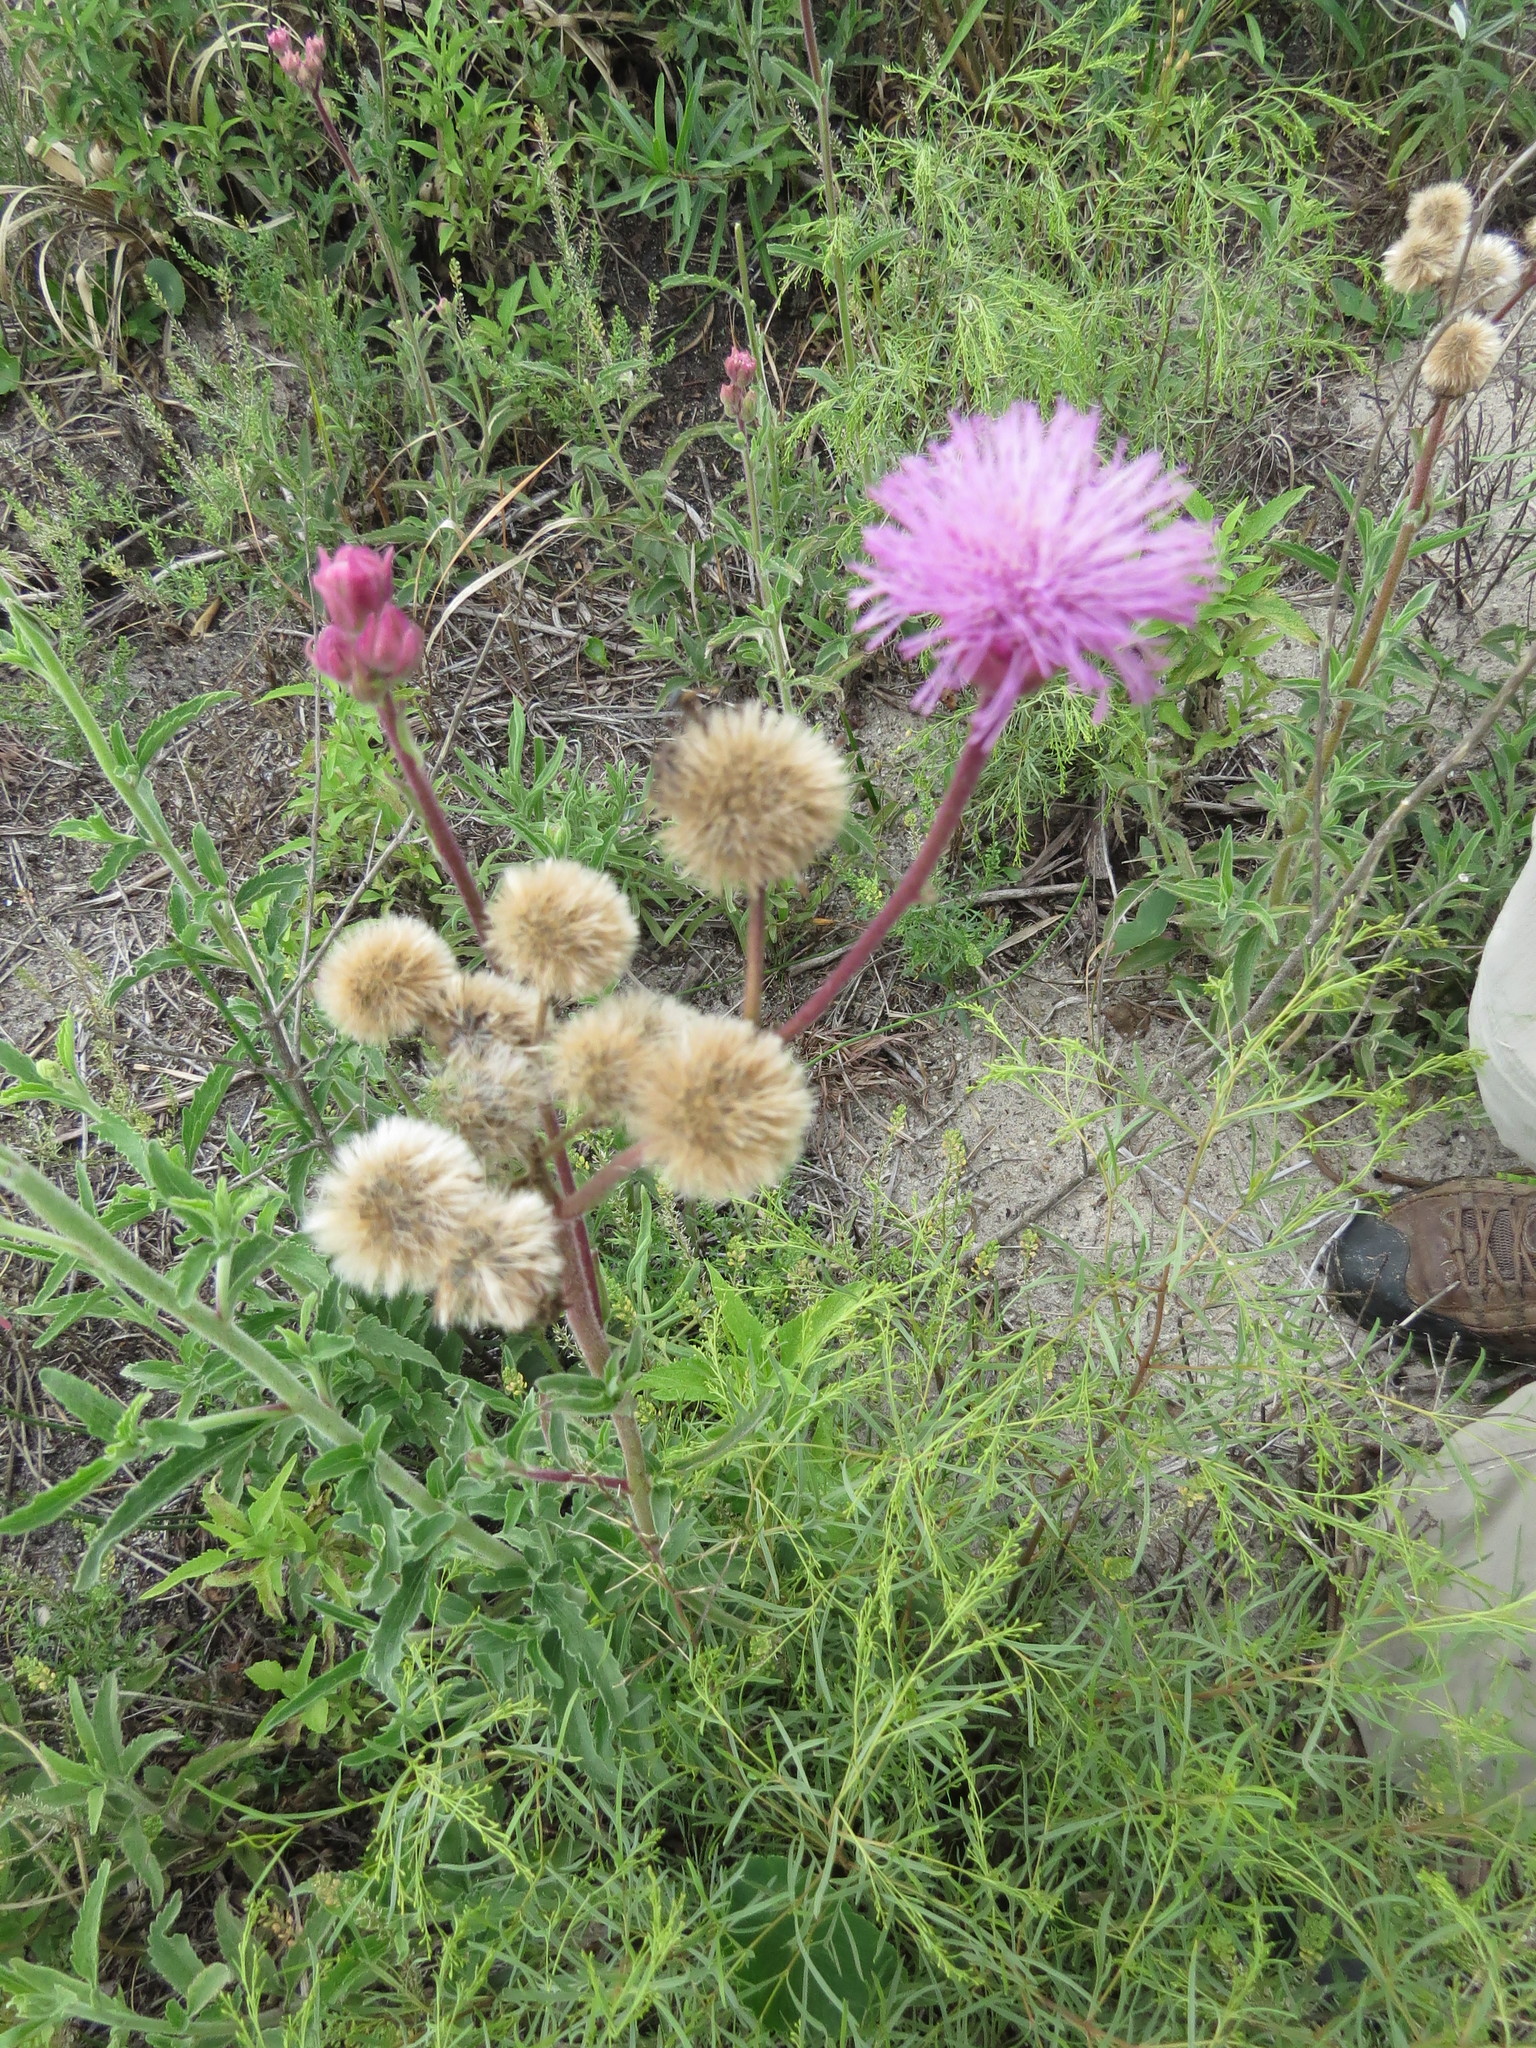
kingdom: Plantae
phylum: Tracheophyta
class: Magnoliopsida
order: Asterales
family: Asteraceae
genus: Campuloclinium
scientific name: Campuloclinium macrocephalum
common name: Pompomweed
